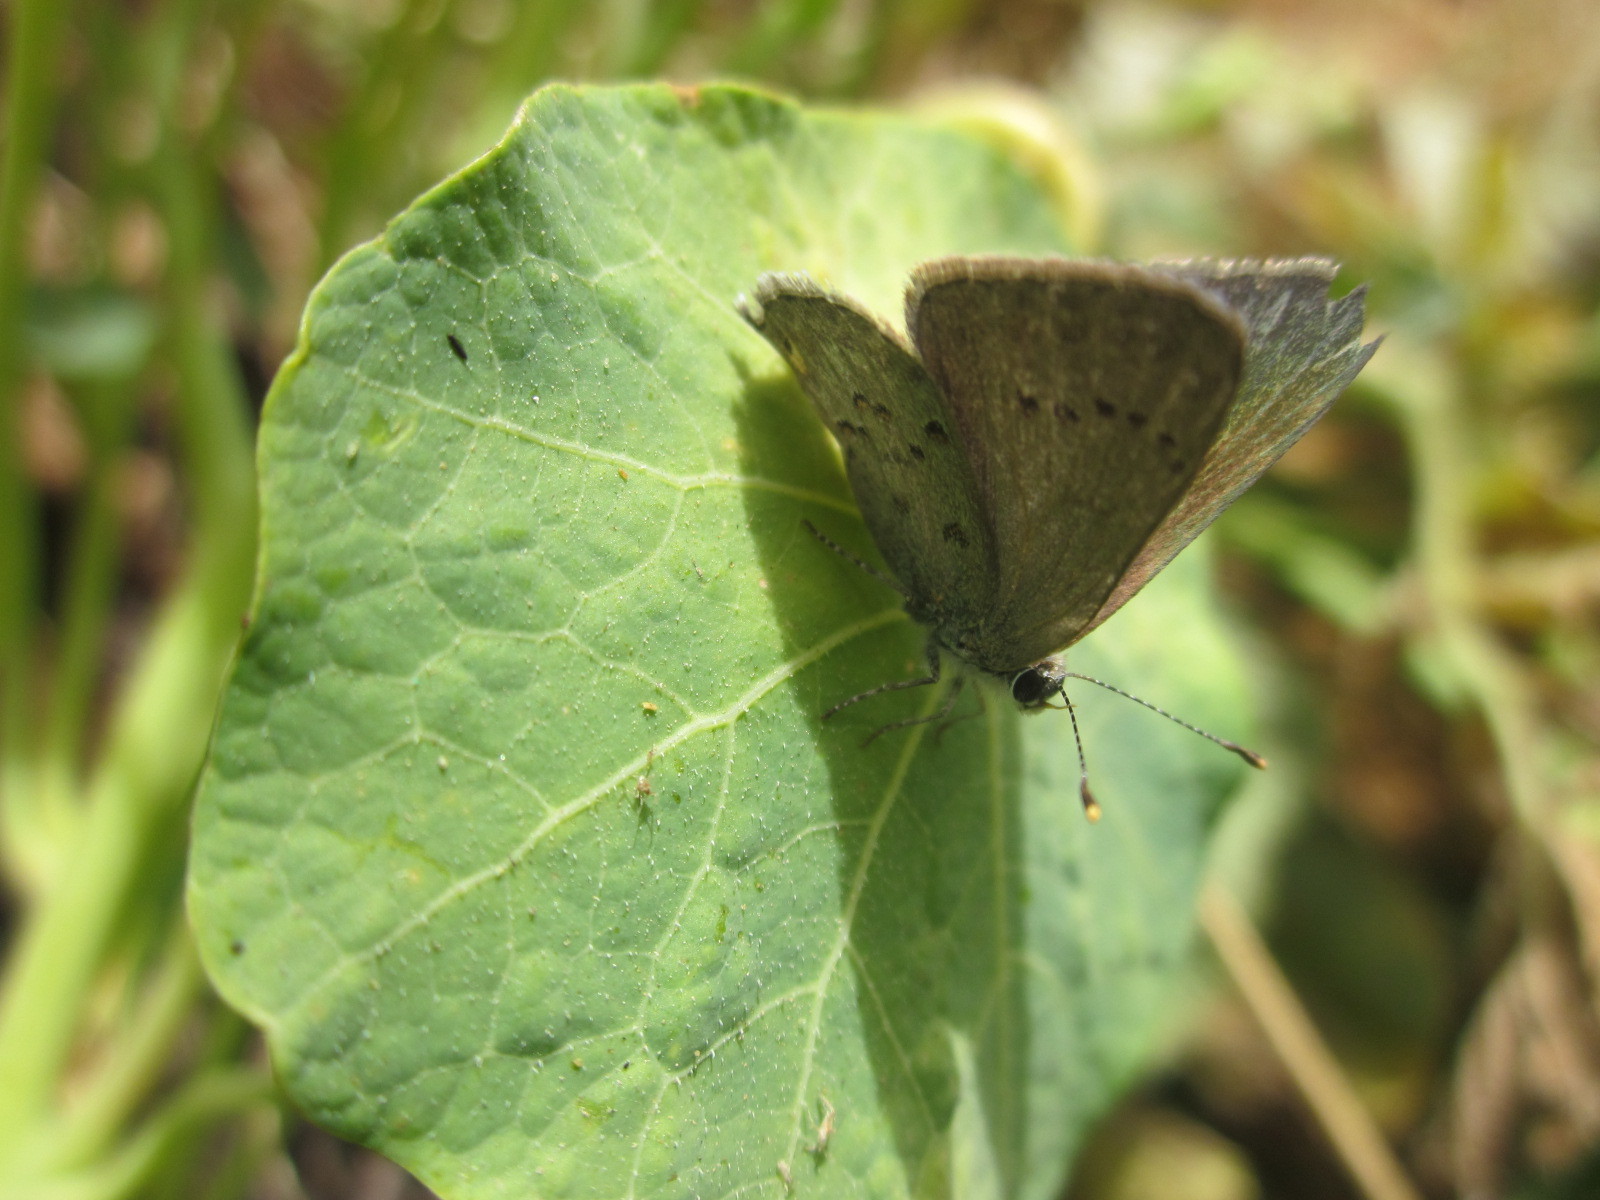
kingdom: Animalia
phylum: Arthropoda
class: Insecta
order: Lepidoptera
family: Lycaenidae
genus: Strymon
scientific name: Strymon eurytulus
